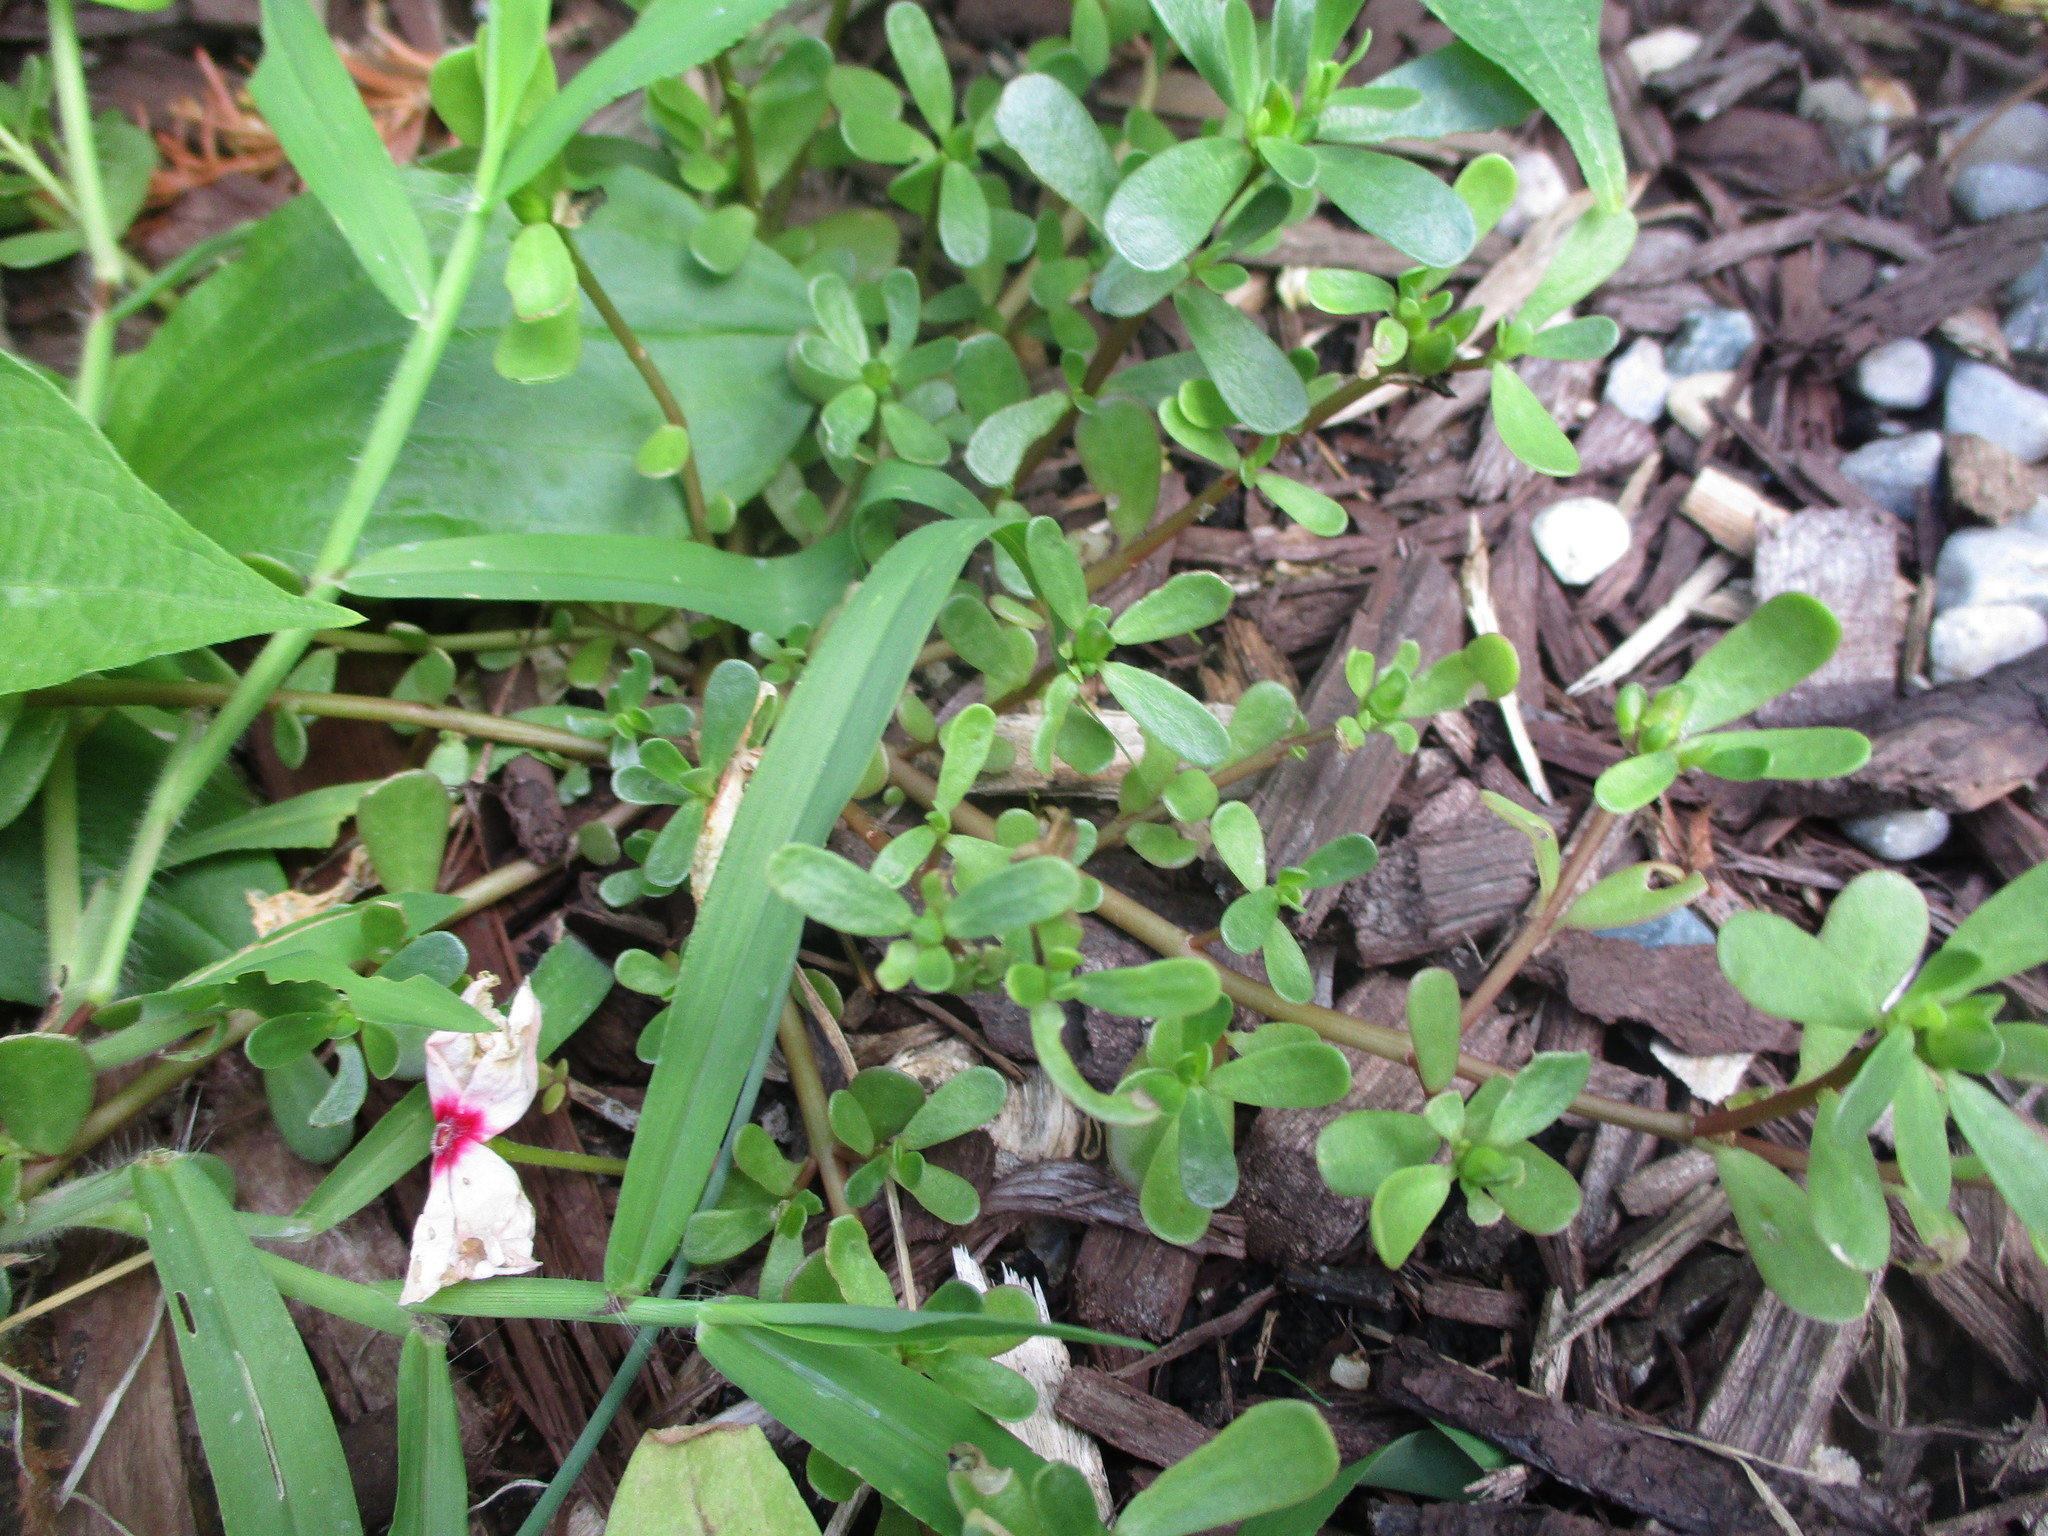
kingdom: Plantae
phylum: Tracheophyta
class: Magnoliopsida
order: Caryophyllales
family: Portulacaceae
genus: Portulaca
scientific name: Portulaca oleracea
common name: Common purslane
